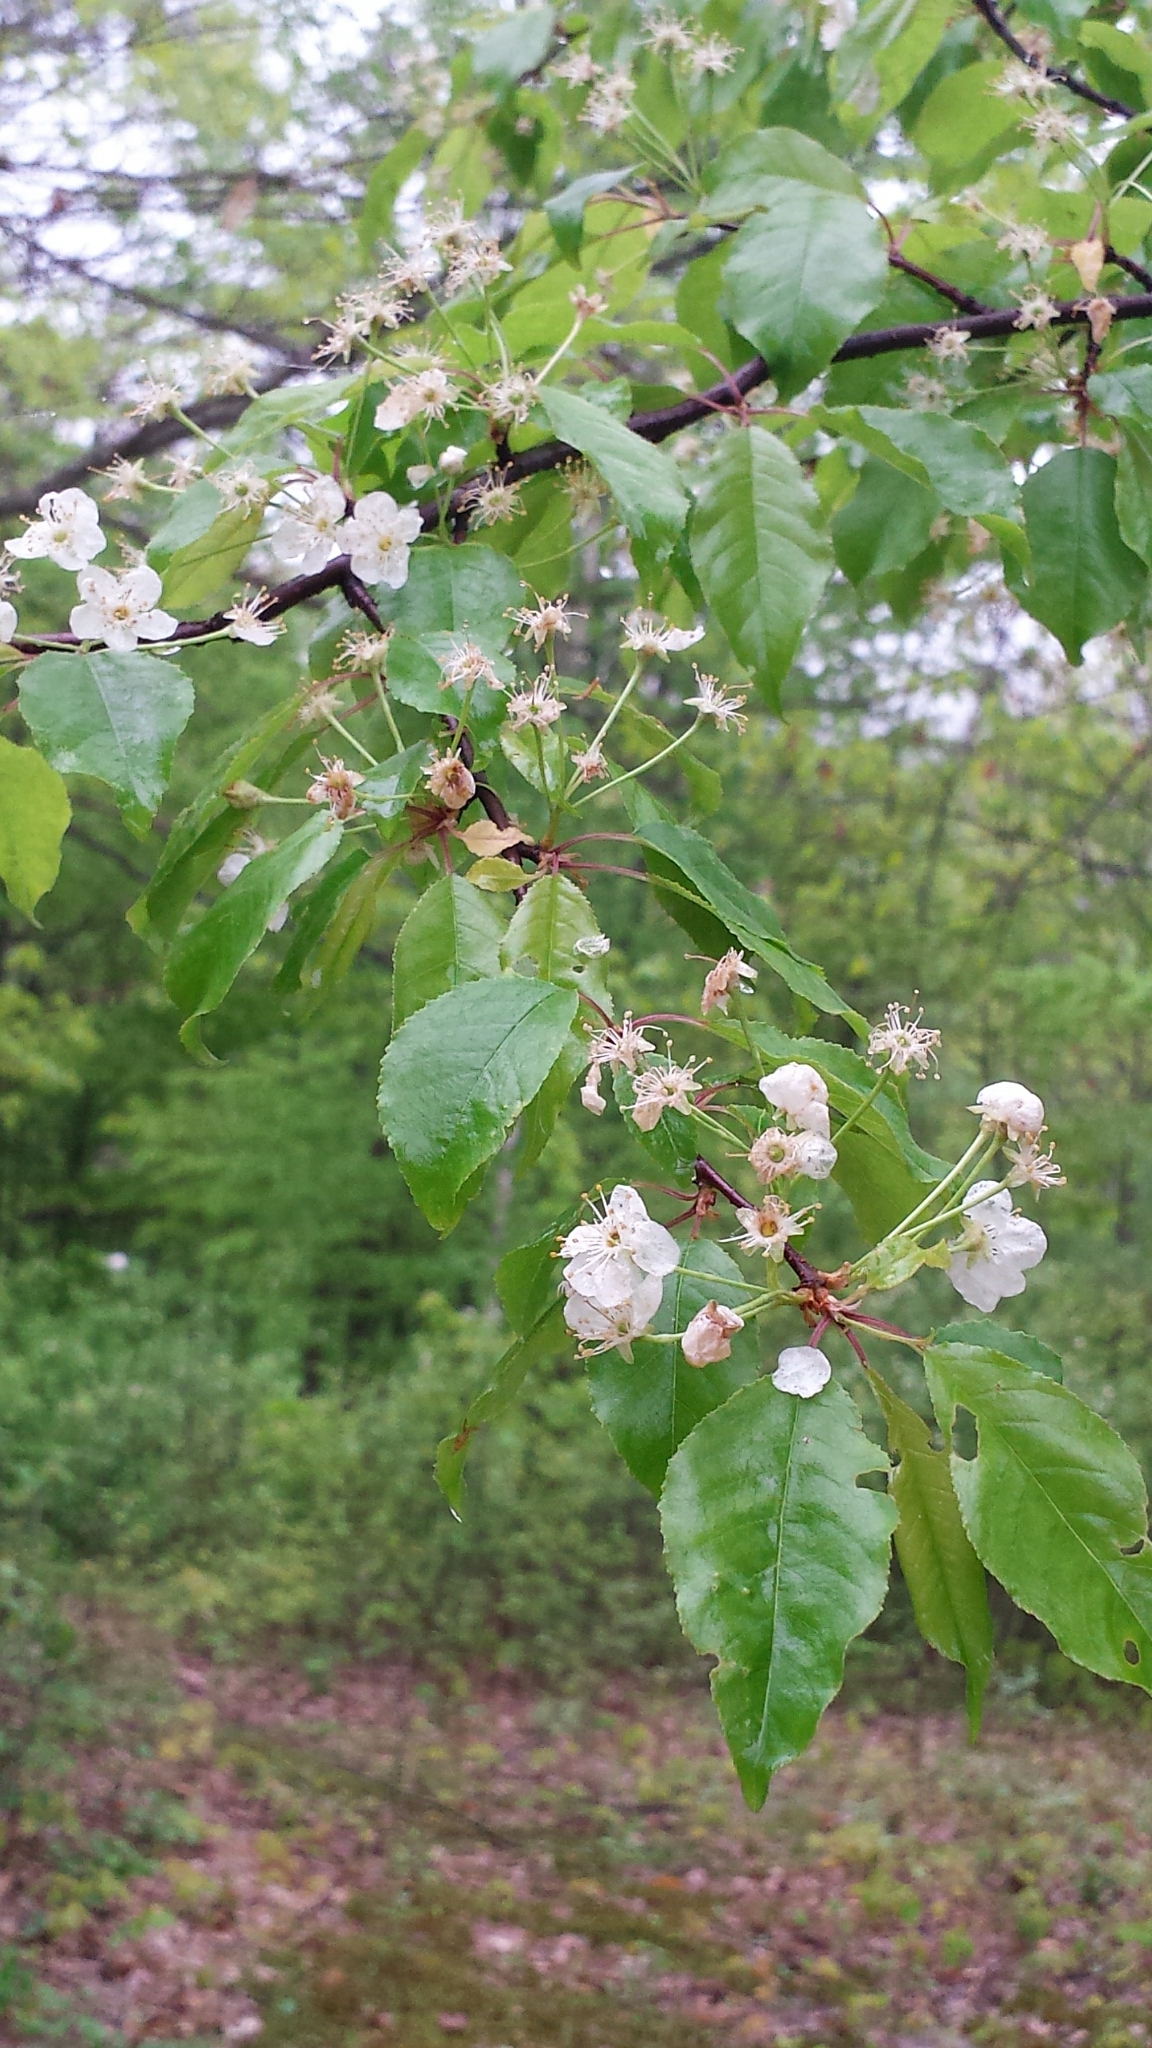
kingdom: Plantae
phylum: Tracheophyta
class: Magnoliopsida
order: Rosales
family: Rosaceae
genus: Prunus
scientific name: Prunus pensylvanica
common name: Pin cherry
